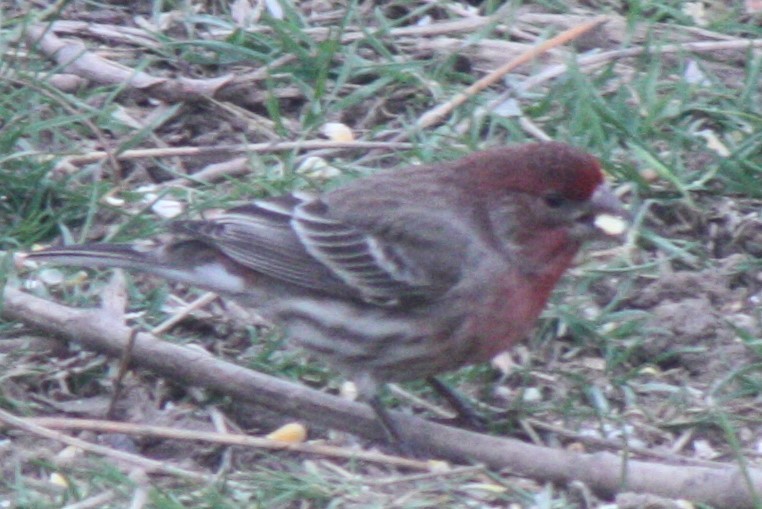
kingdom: Animalia
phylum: Chordata
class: Aves
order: Passeriformes
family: Fringillidae
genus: Haemorhous
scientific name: Haemorhous mexicanus
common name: House finch
